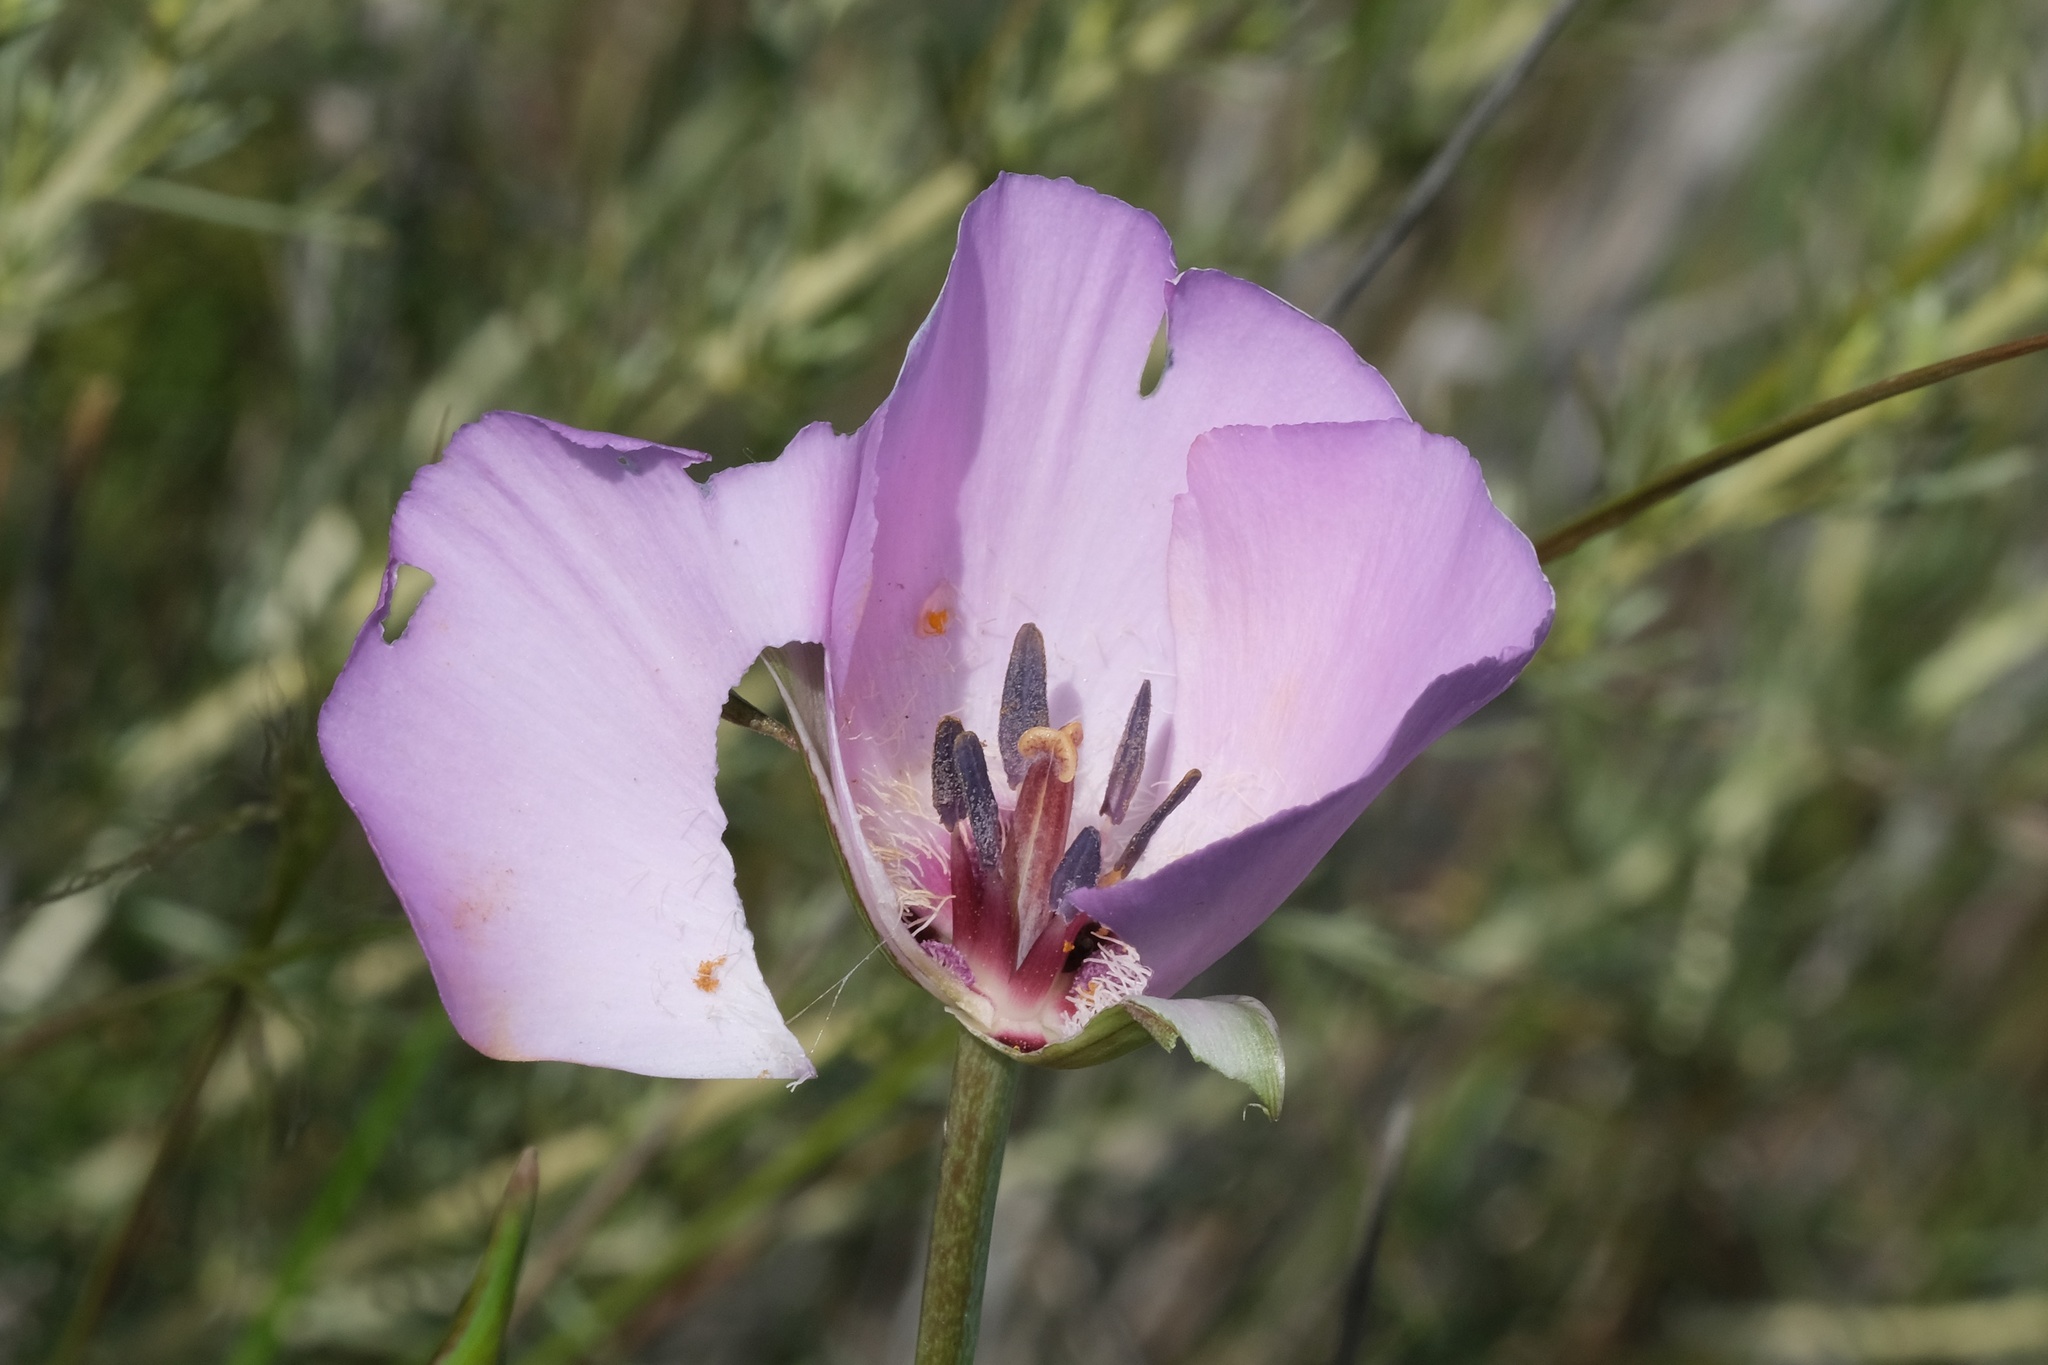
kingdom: Plantae
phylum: Tracheophyta
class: Liliopsida
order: Liliales
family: Liliaceae
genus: Calochortus
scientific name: Calochortus splendens
